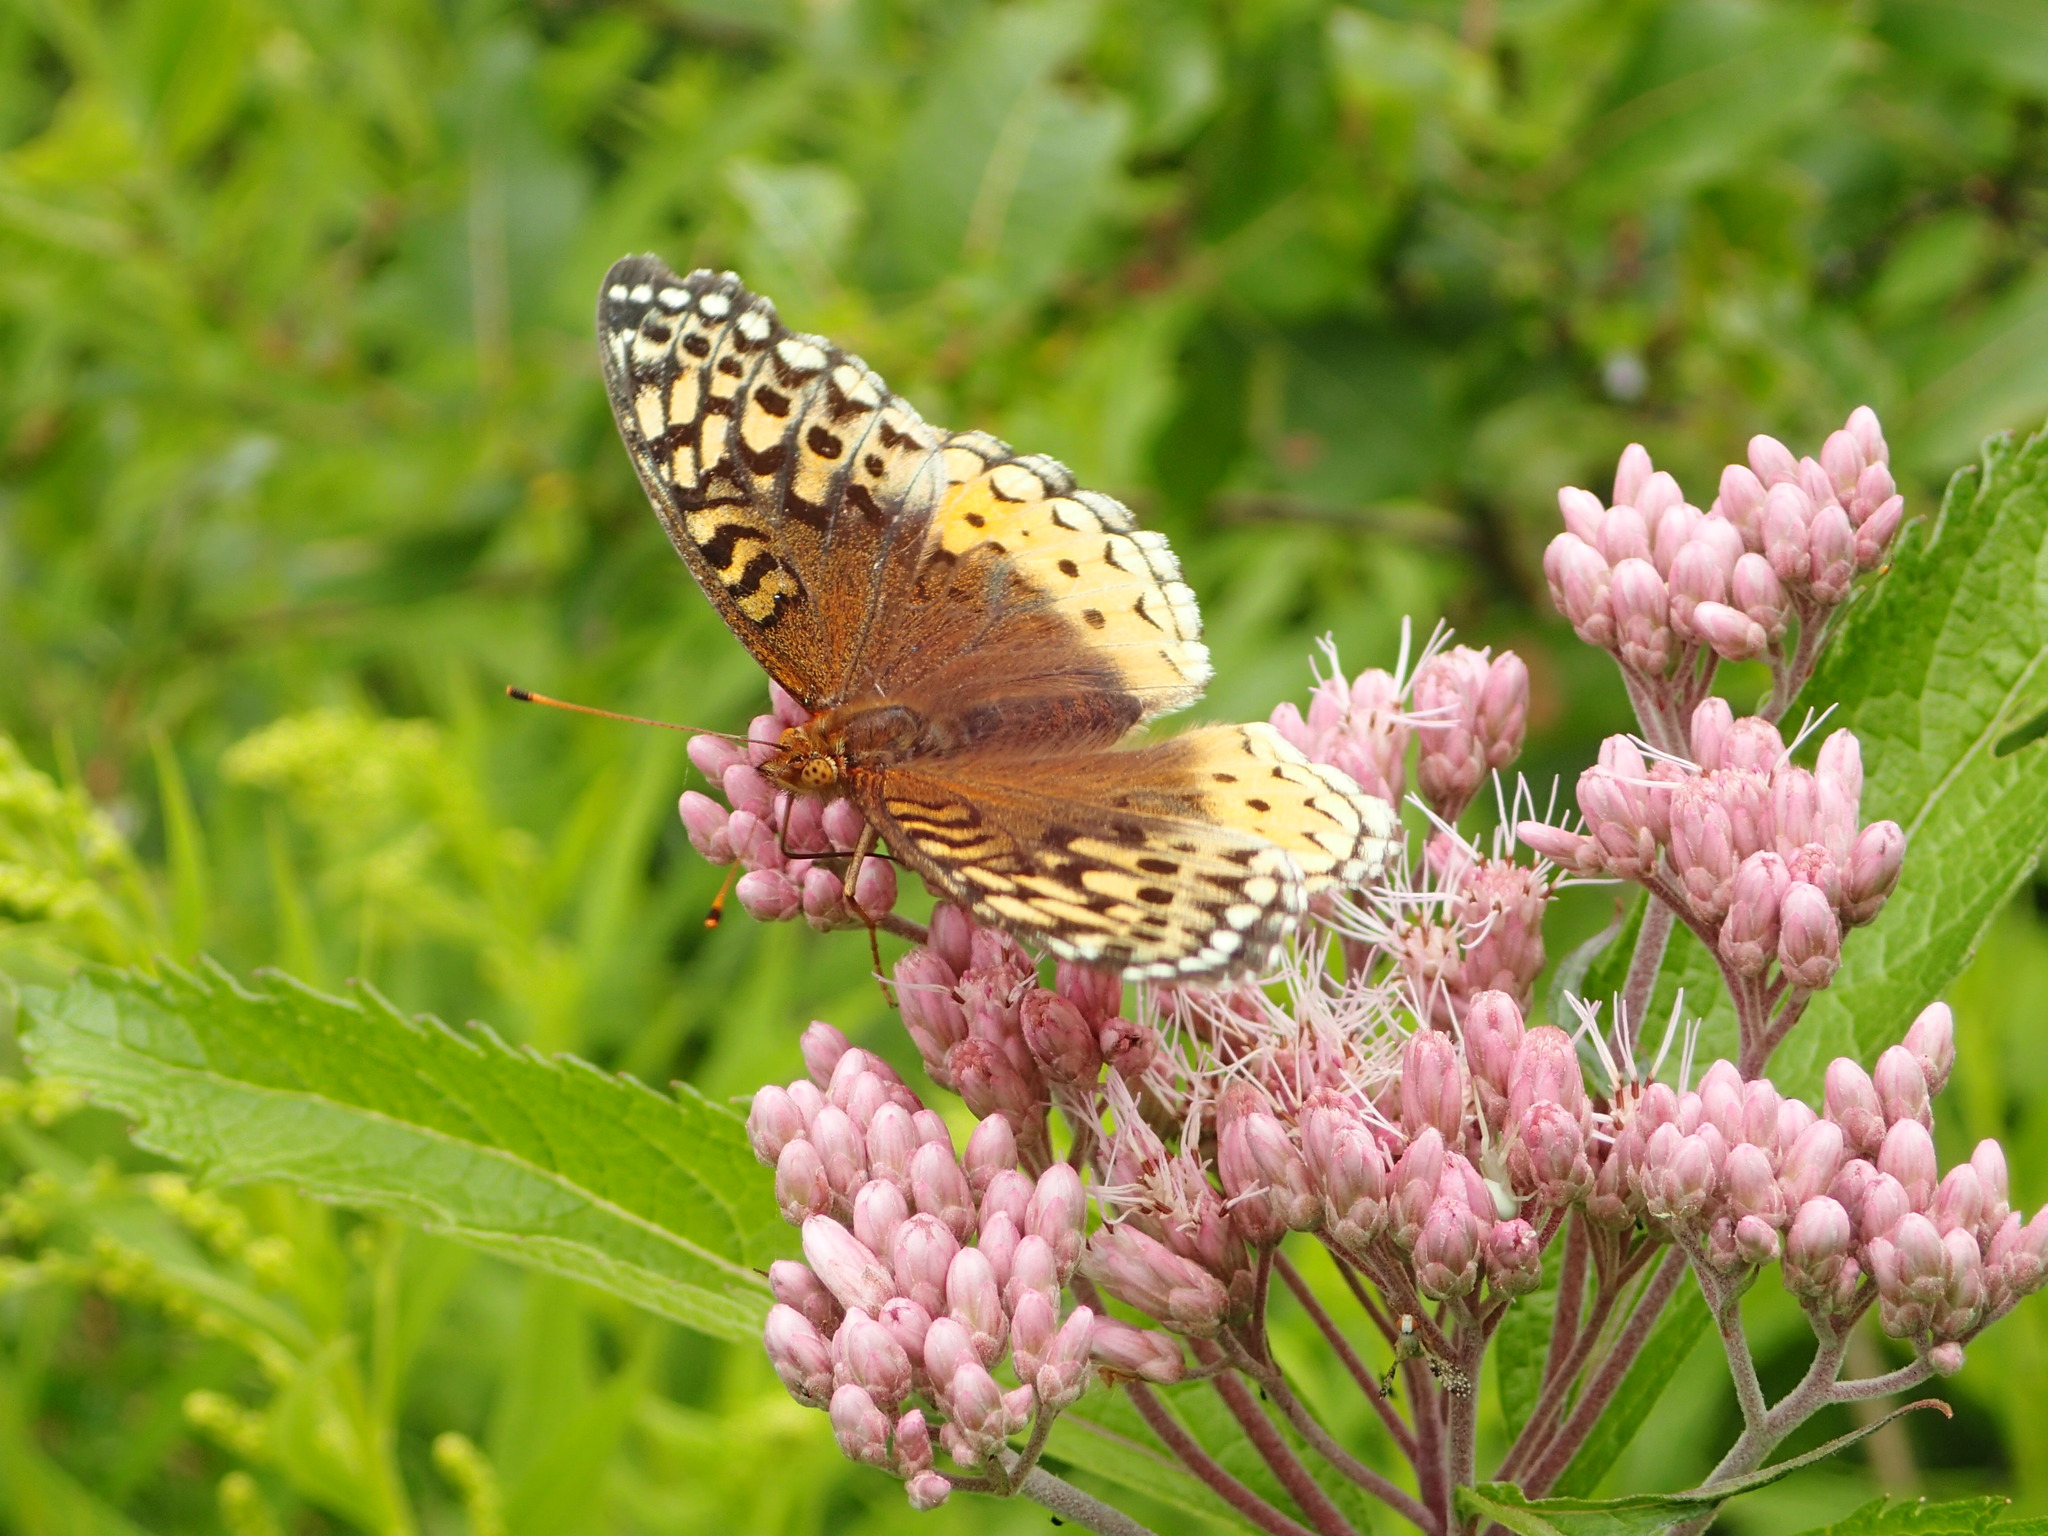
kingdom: Animalia
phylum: Arthropoda
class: Insecta
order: Lepidoptera
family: Nymphalidae
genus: Speyeria
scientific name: Speyeria cybele
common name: Great spangled fritillary
